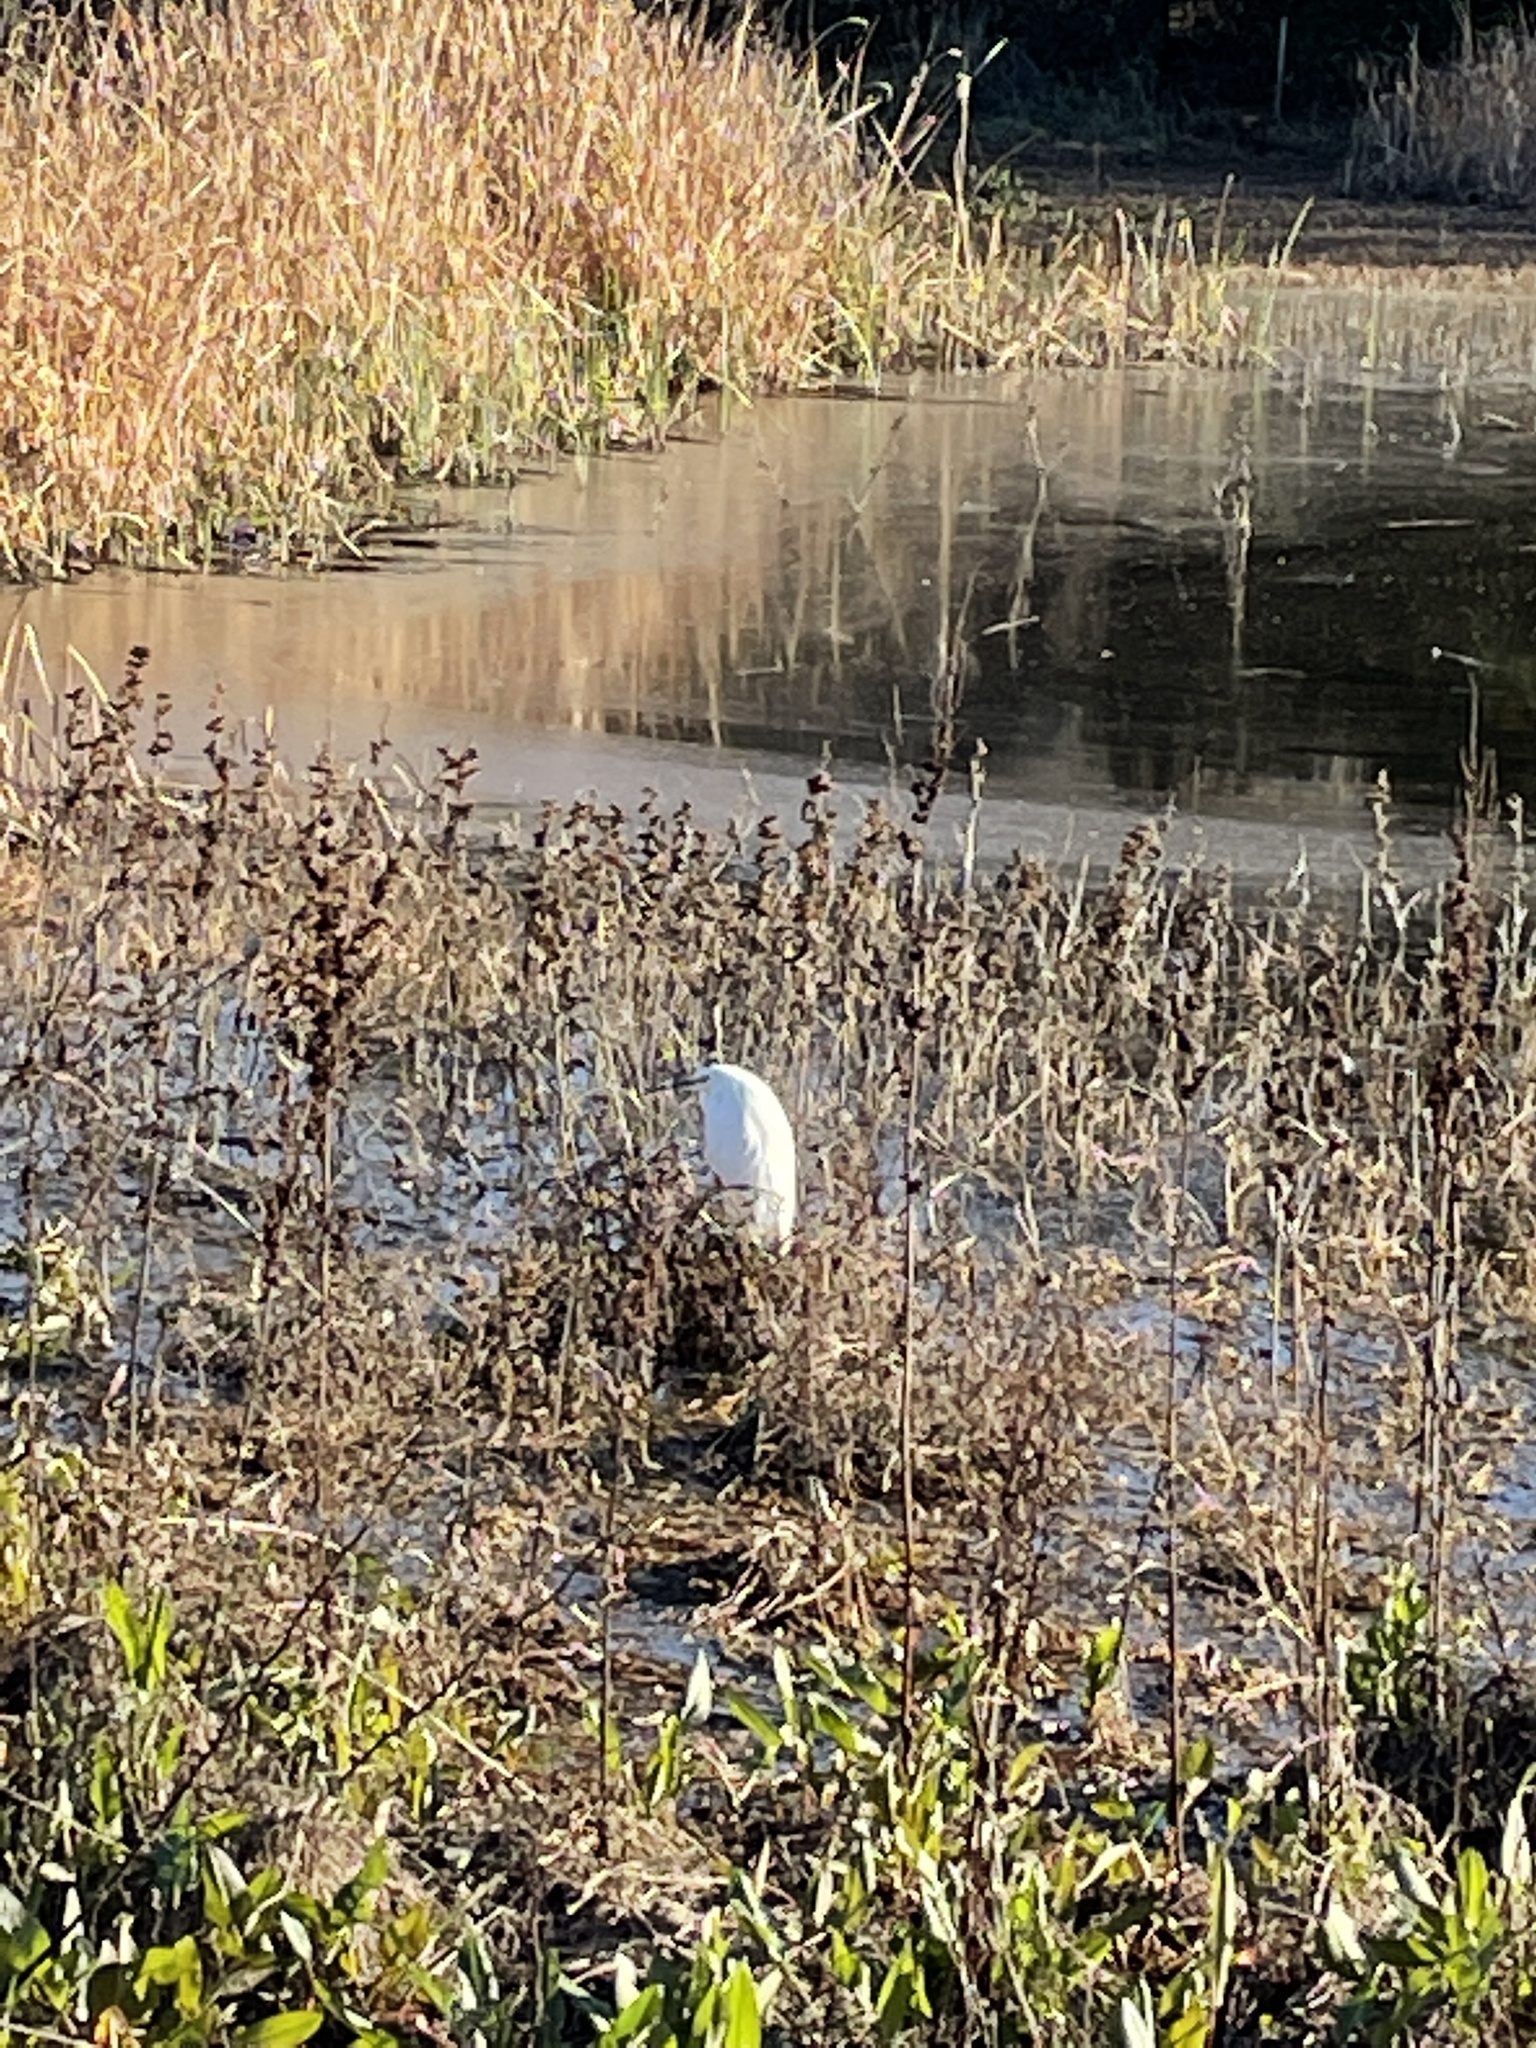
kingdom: Animalia
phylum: Chordata
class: Aves
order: Pelecaniformes
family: Ardeidae
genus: Egretta
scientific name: Egretta thula
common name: Snowy egret
